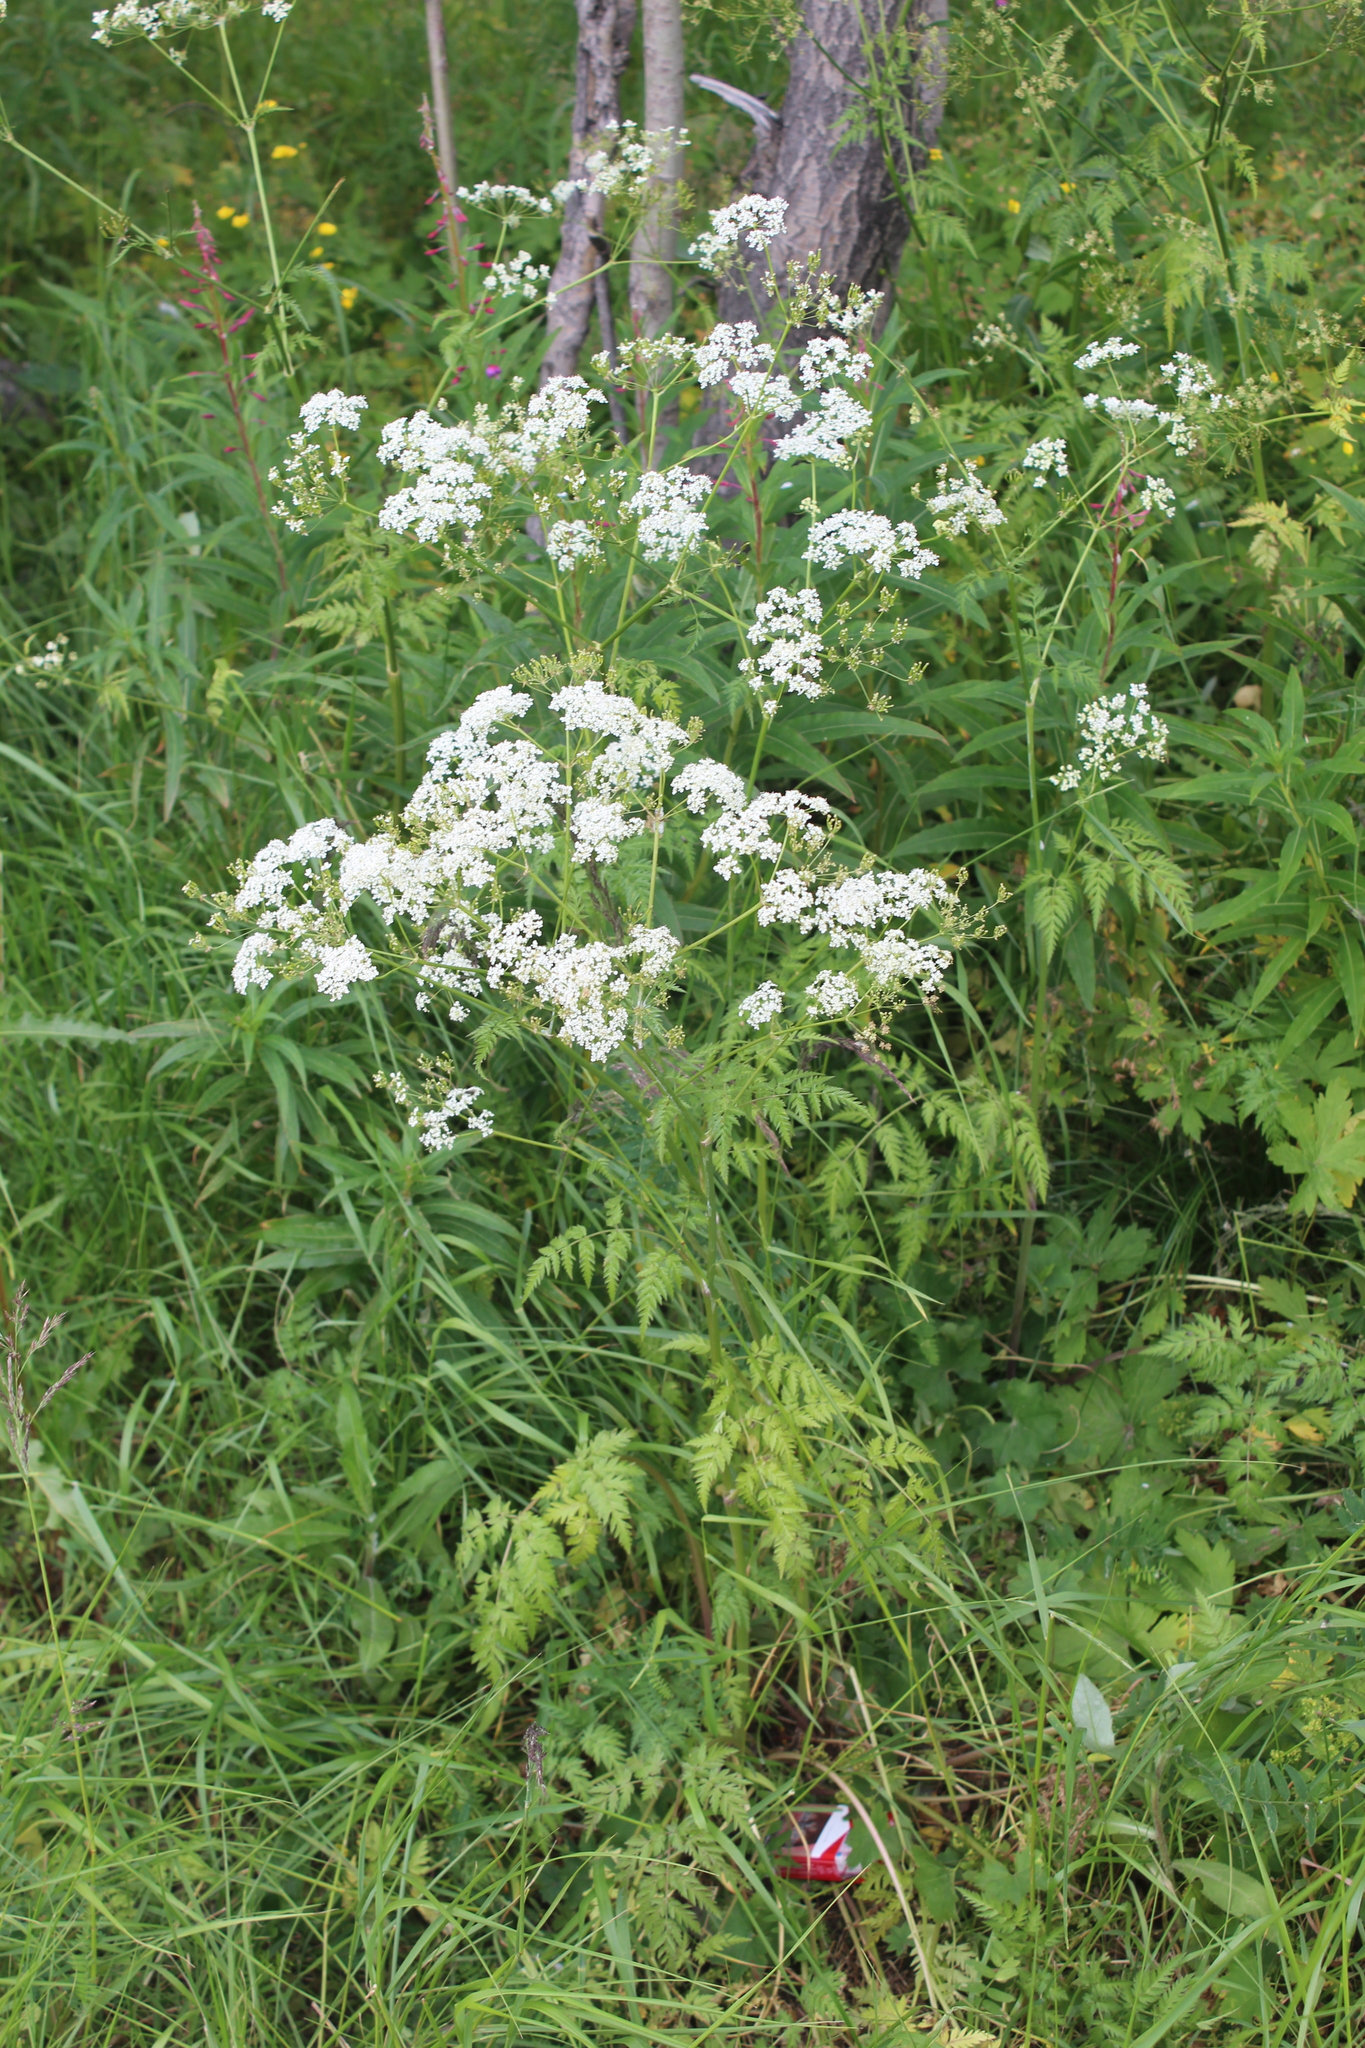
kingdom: Plantae
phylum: Tracheophyta
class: Magnoliopsida
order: Apiales
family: Apiaceae
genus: Anthriscus
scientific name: Anthriscus sylvestris
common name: Cow parsley
